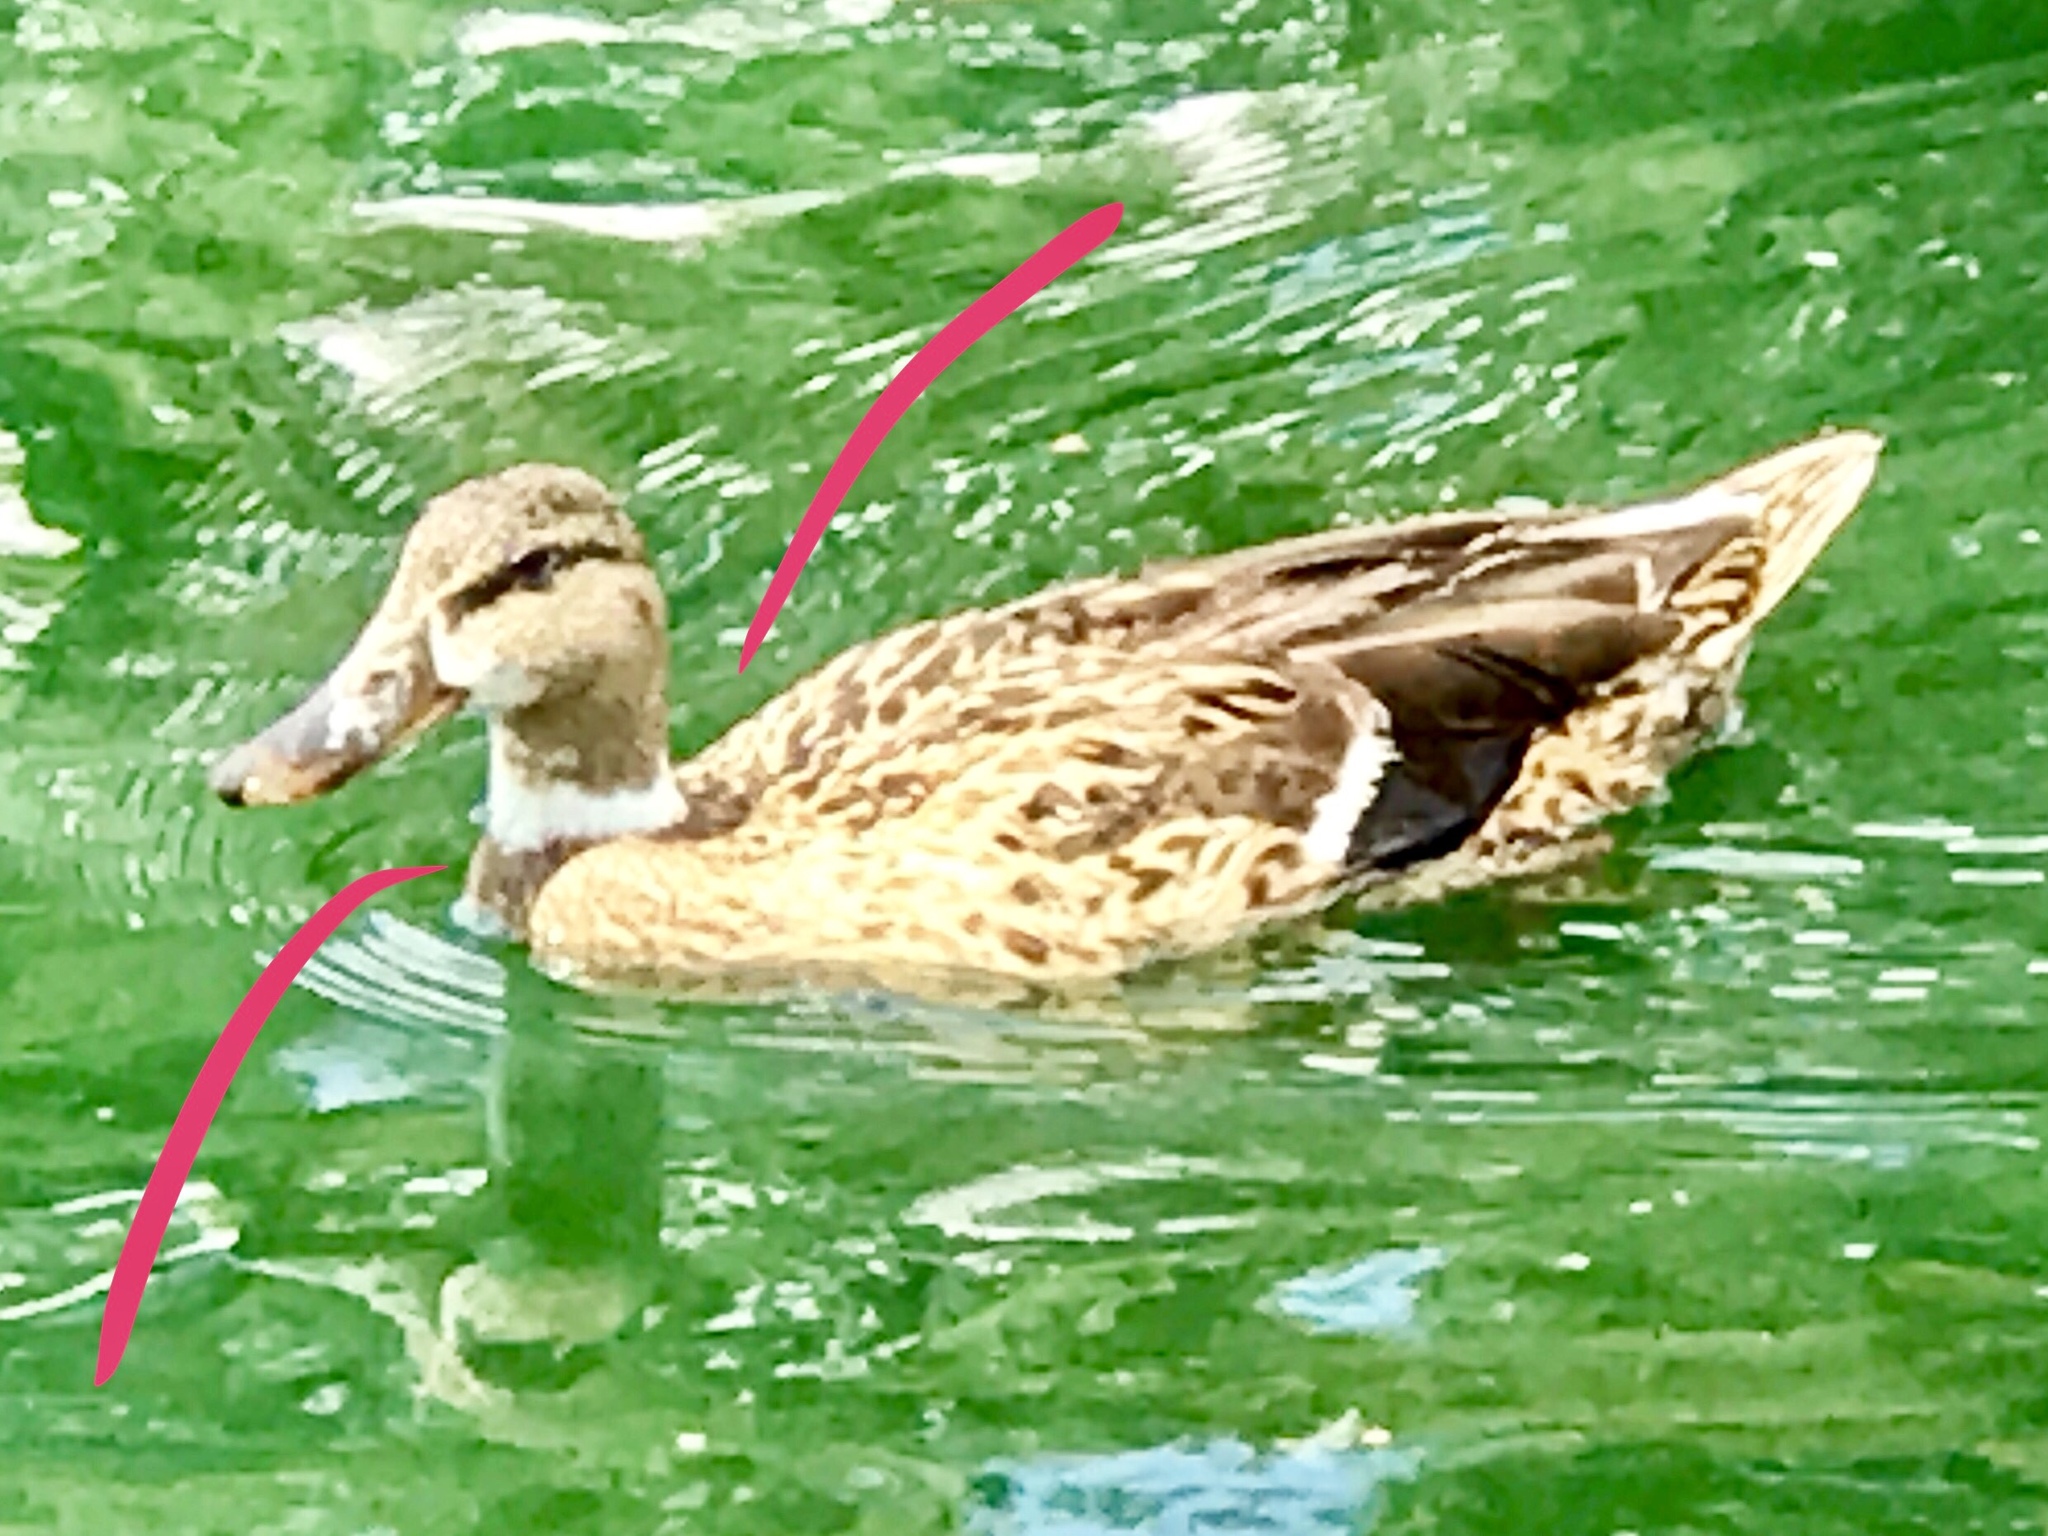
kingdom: Animalia
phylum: Chordata
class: Aves
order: Anseriformes
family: Anatidae
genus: Anas
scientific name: Anas platyrhynchos
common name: Mallard
